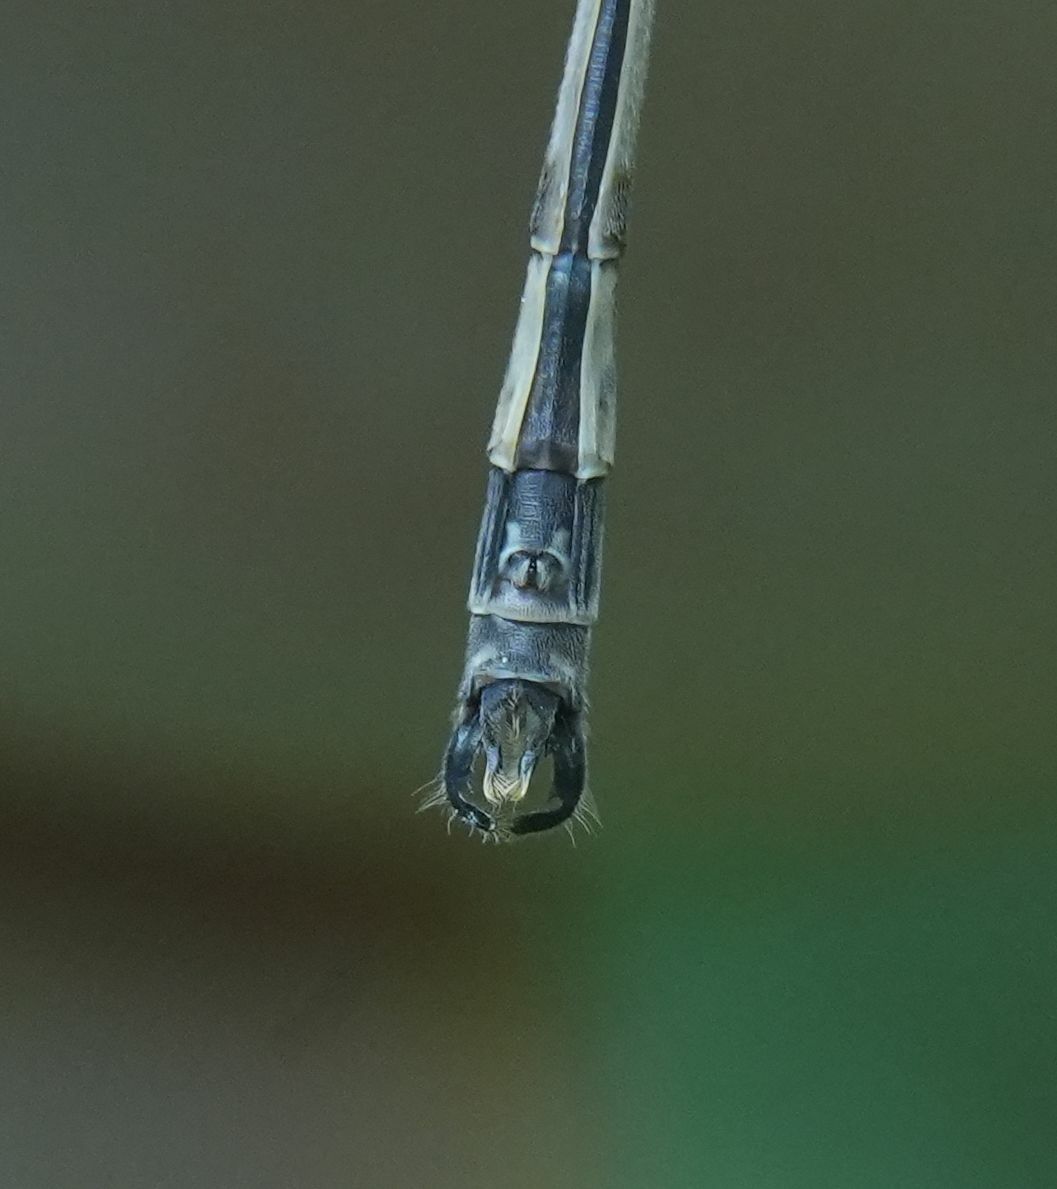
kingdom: Animalia
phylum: Arthropoda
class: Insecta
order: Odonata
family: Lestidae
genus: Lestes
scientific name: Lestes rectangularis
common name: Slender spreadwing
